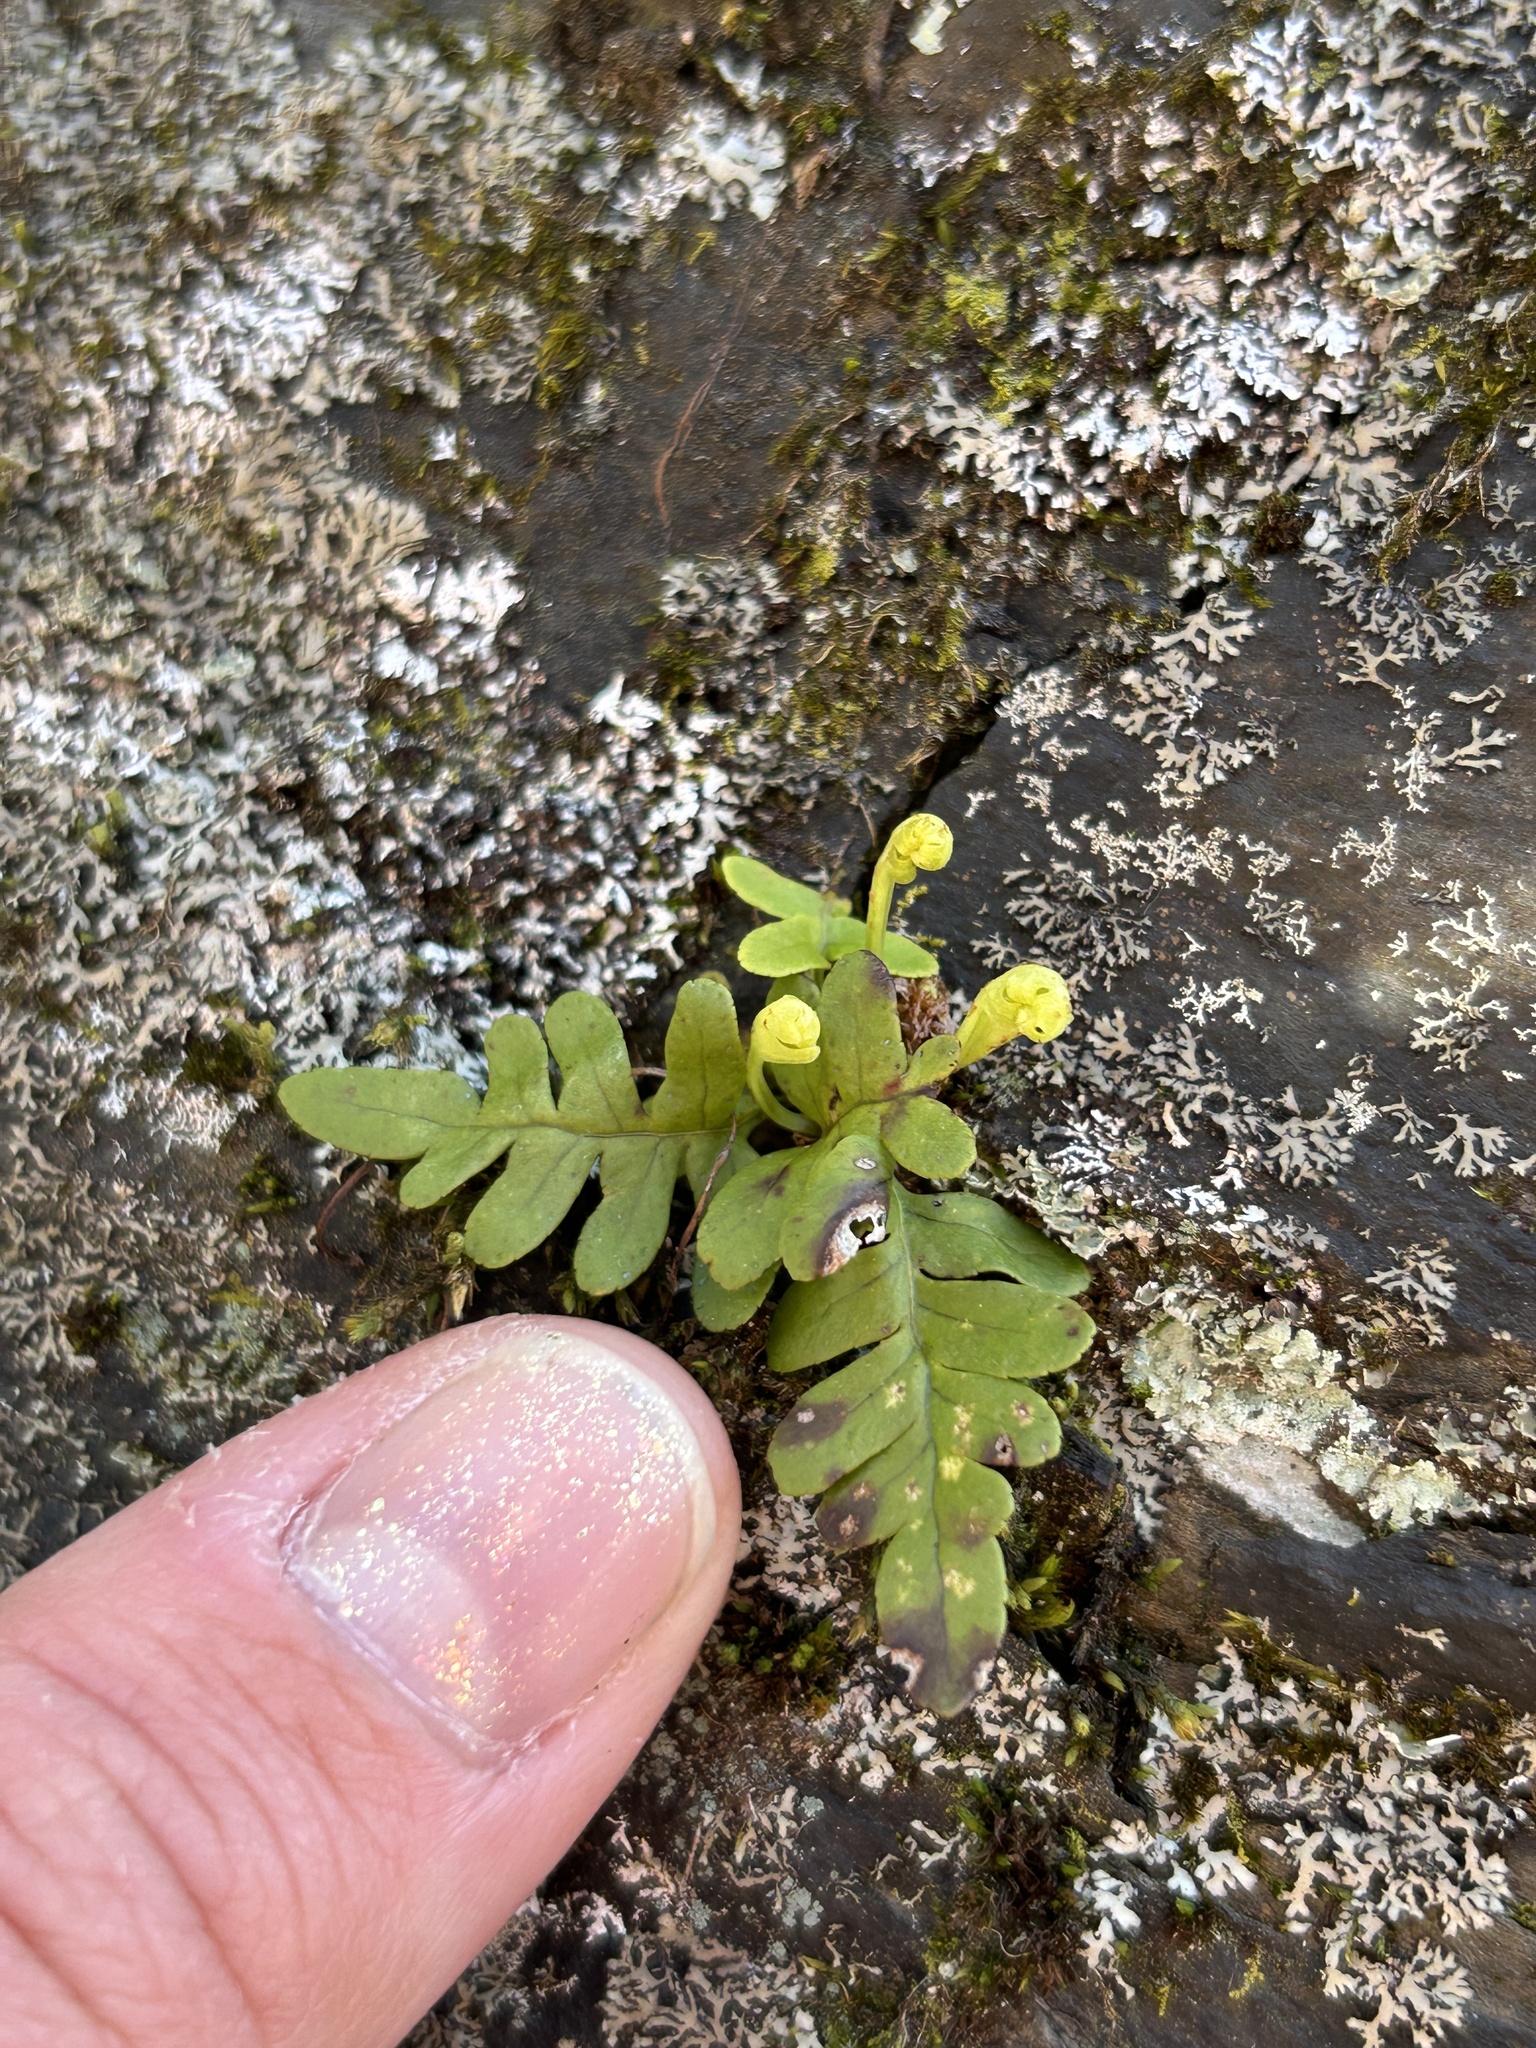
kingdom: Plantae
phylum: Tracheophyta
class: Polypodiopsida
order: Polypodiales
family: Polypodiaceae
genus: Polypodium
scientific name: Polypodium virginianum
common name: American wall fern
